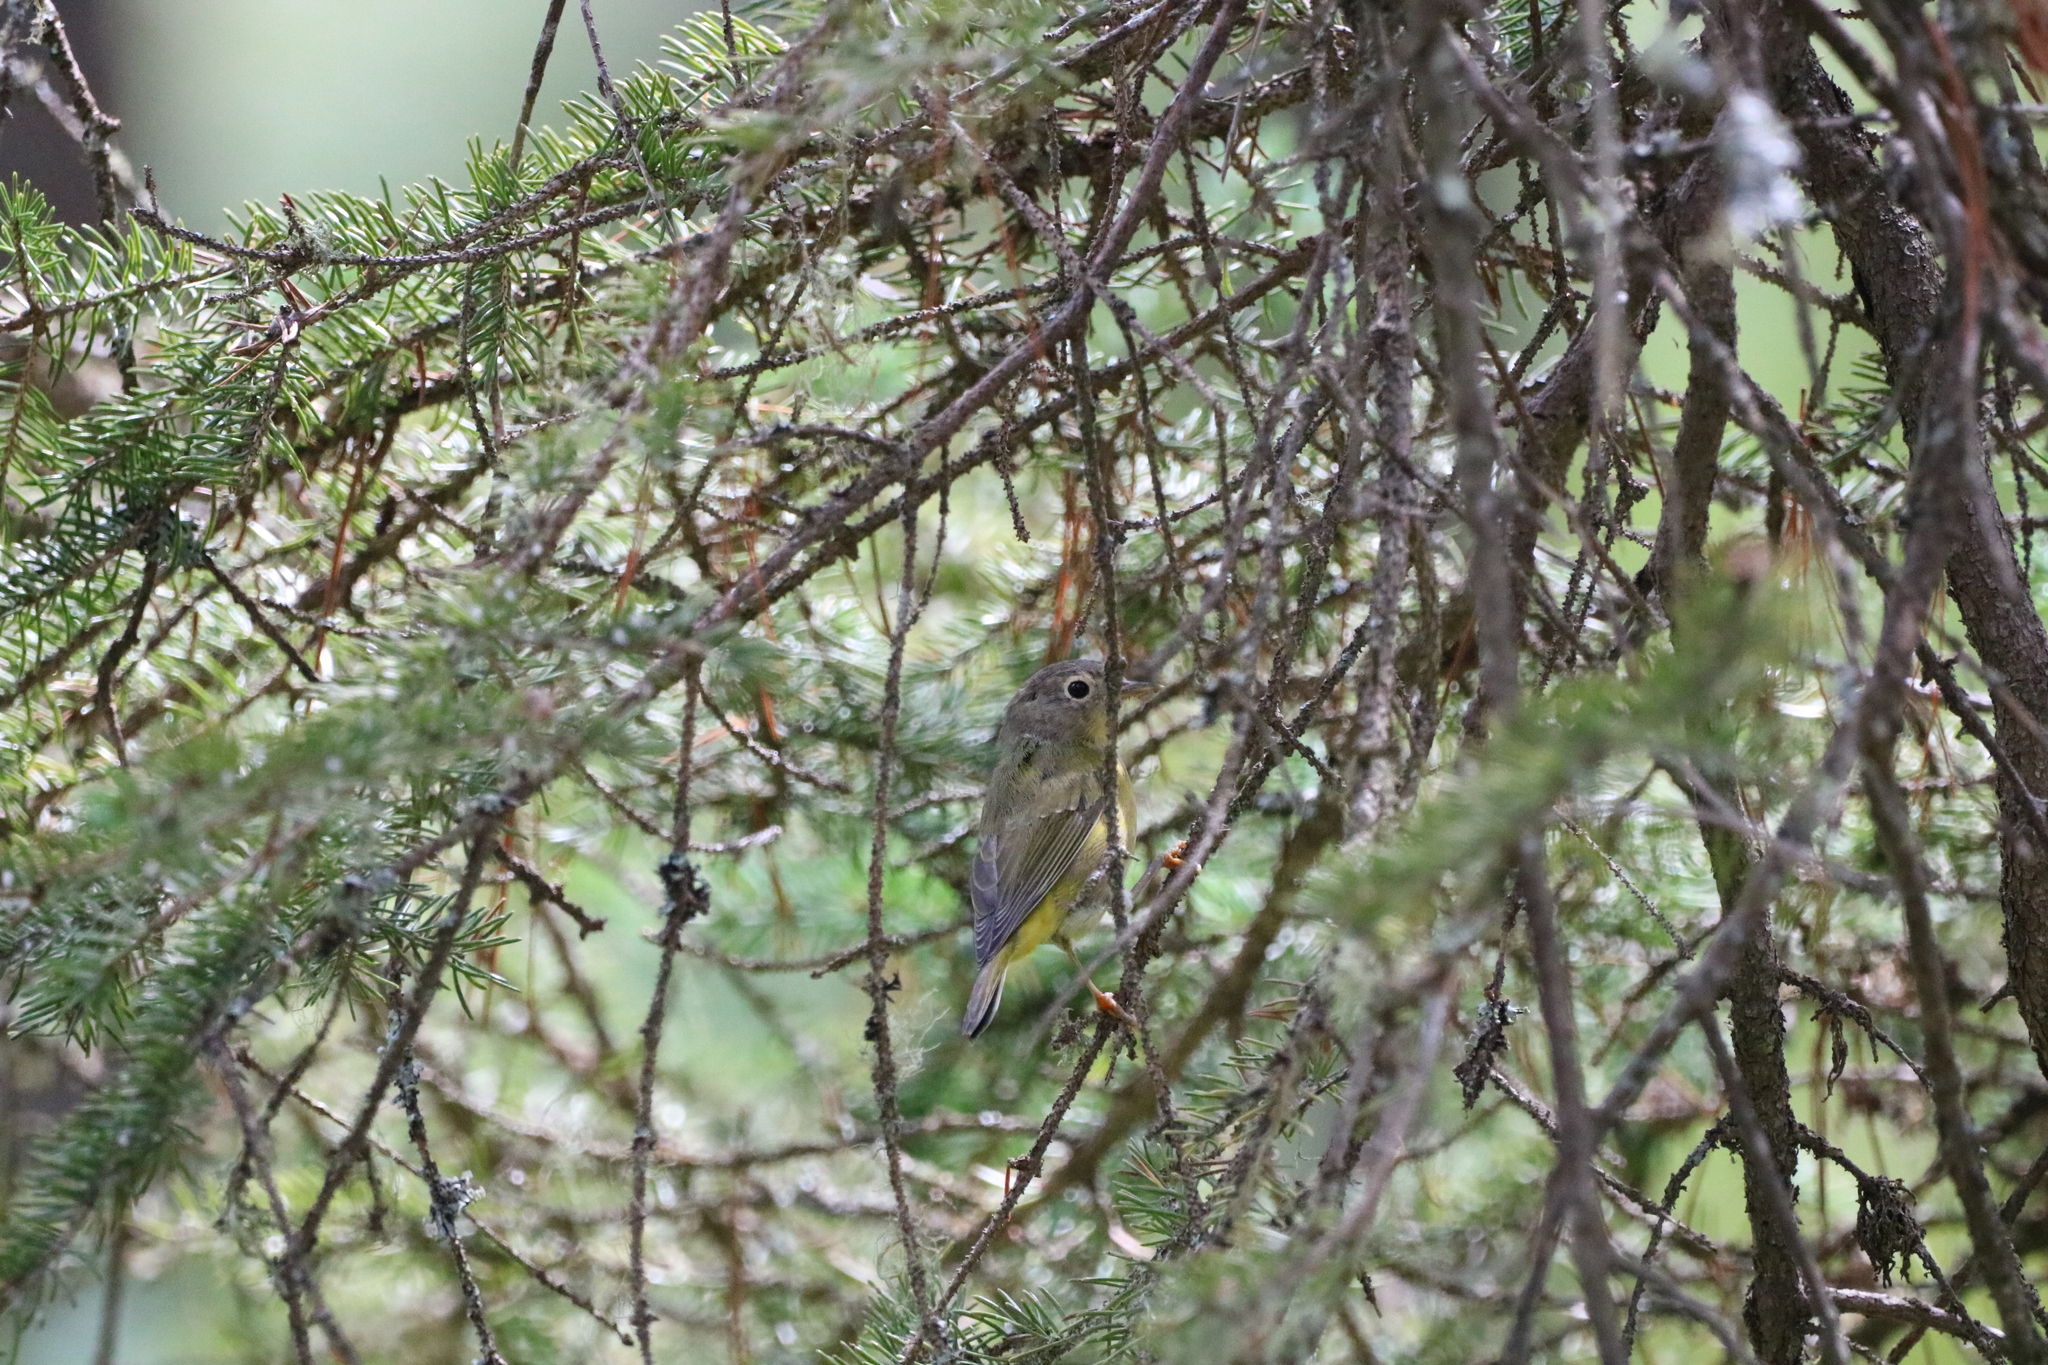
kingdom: Animalia
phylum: Chordata
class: Aves
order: Passeriformes
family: Parulidae
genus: Leiothlypis
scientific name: Leiothlypis ruficapilla
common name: Nashville warbler
